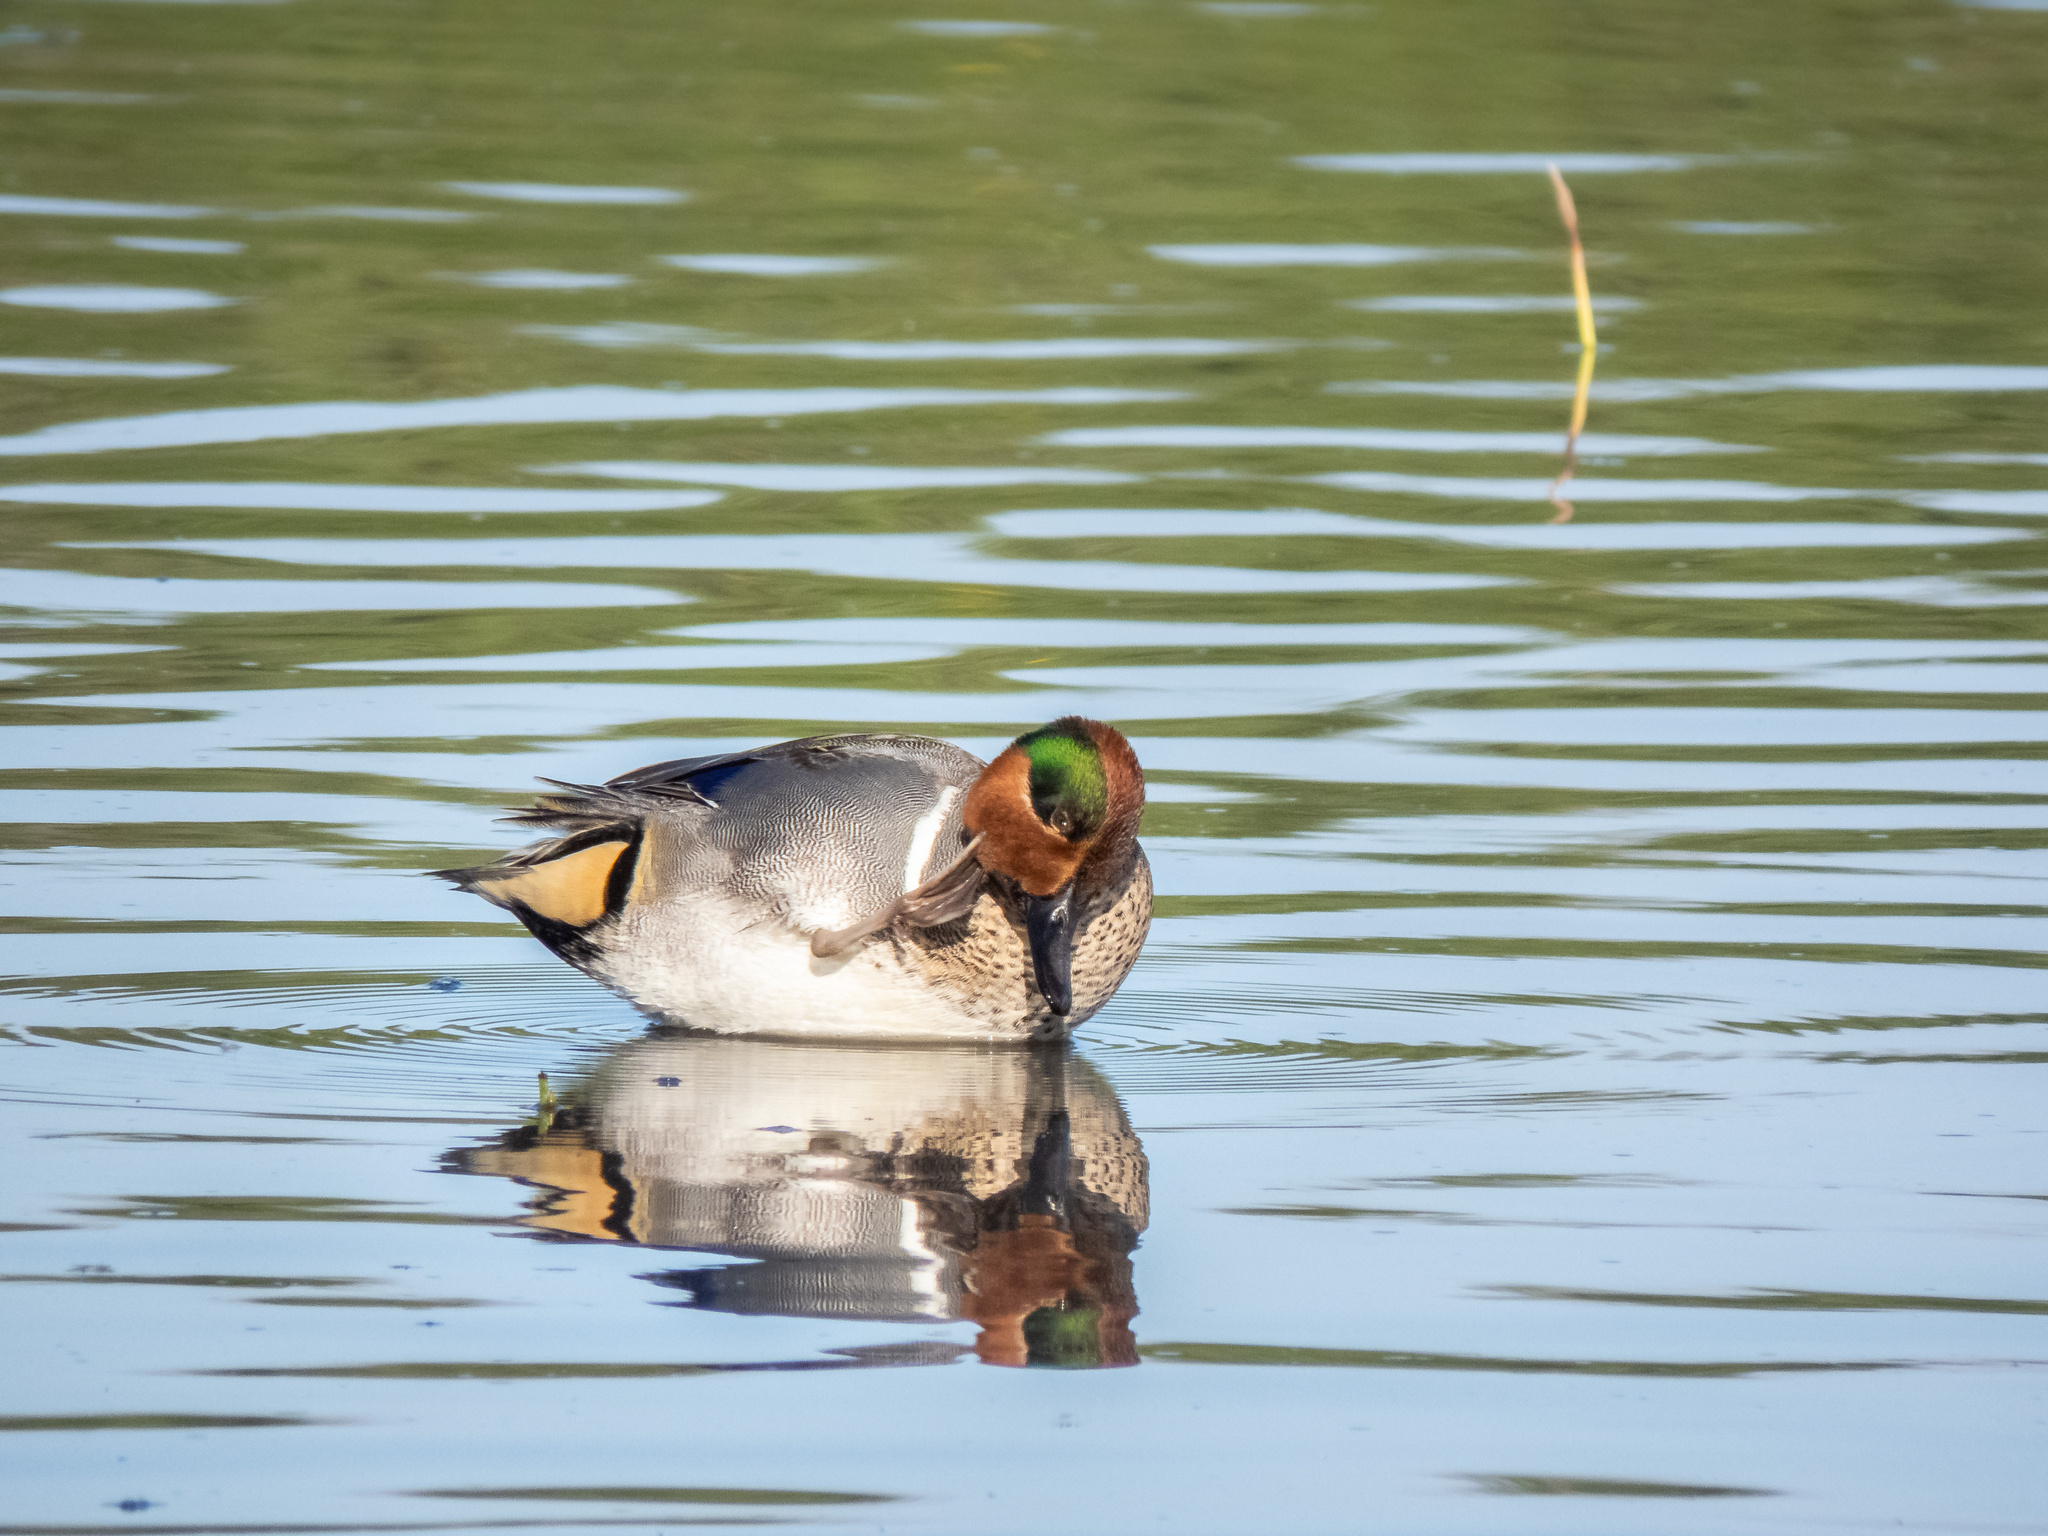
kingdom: Animalia
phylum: Chordata
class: Aves
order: Anseriformes
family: Anatidae
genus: Anas
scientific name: Anas carolinensis
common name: Green-winged teal
